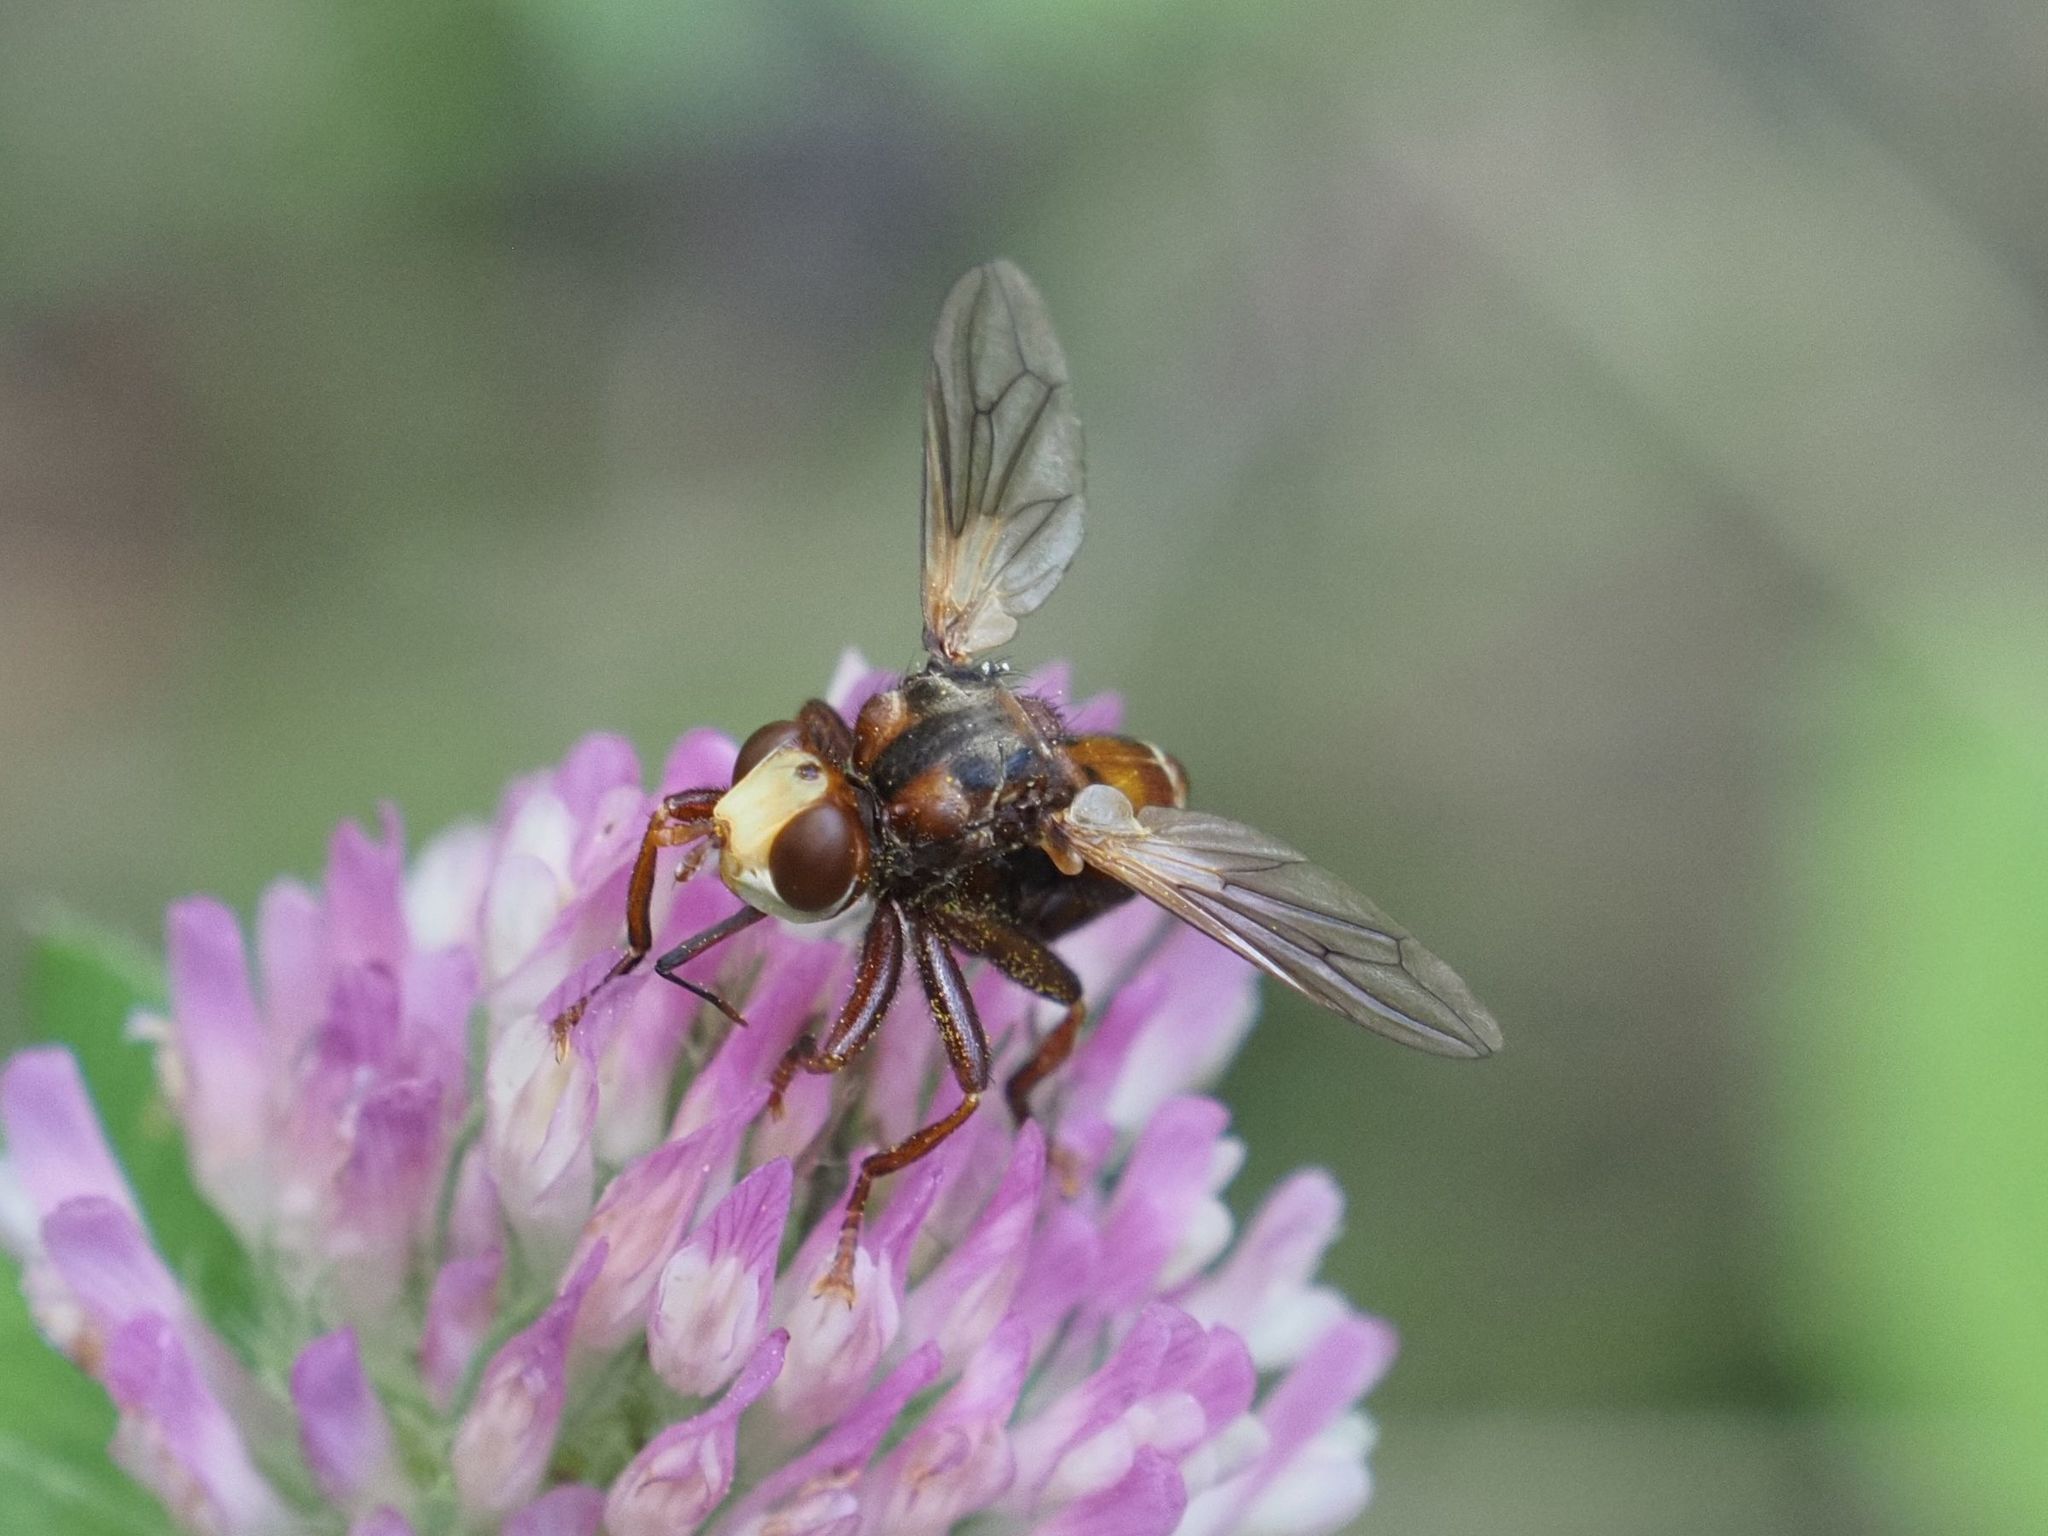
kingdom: Animalia
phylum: Arthropoda
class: Insecta
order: Diptera
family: Conopidae
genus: Sicus
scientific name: Sicus ferrugineus
